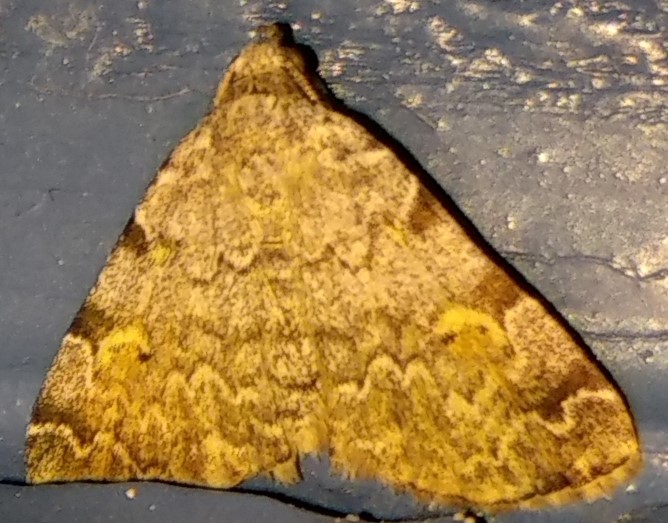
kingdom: Animalia
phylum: Arthropoda
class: Insecta
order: Lepidoptera
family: Erebidae
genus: Idia
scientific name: Idia americalis
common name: American idia moth
